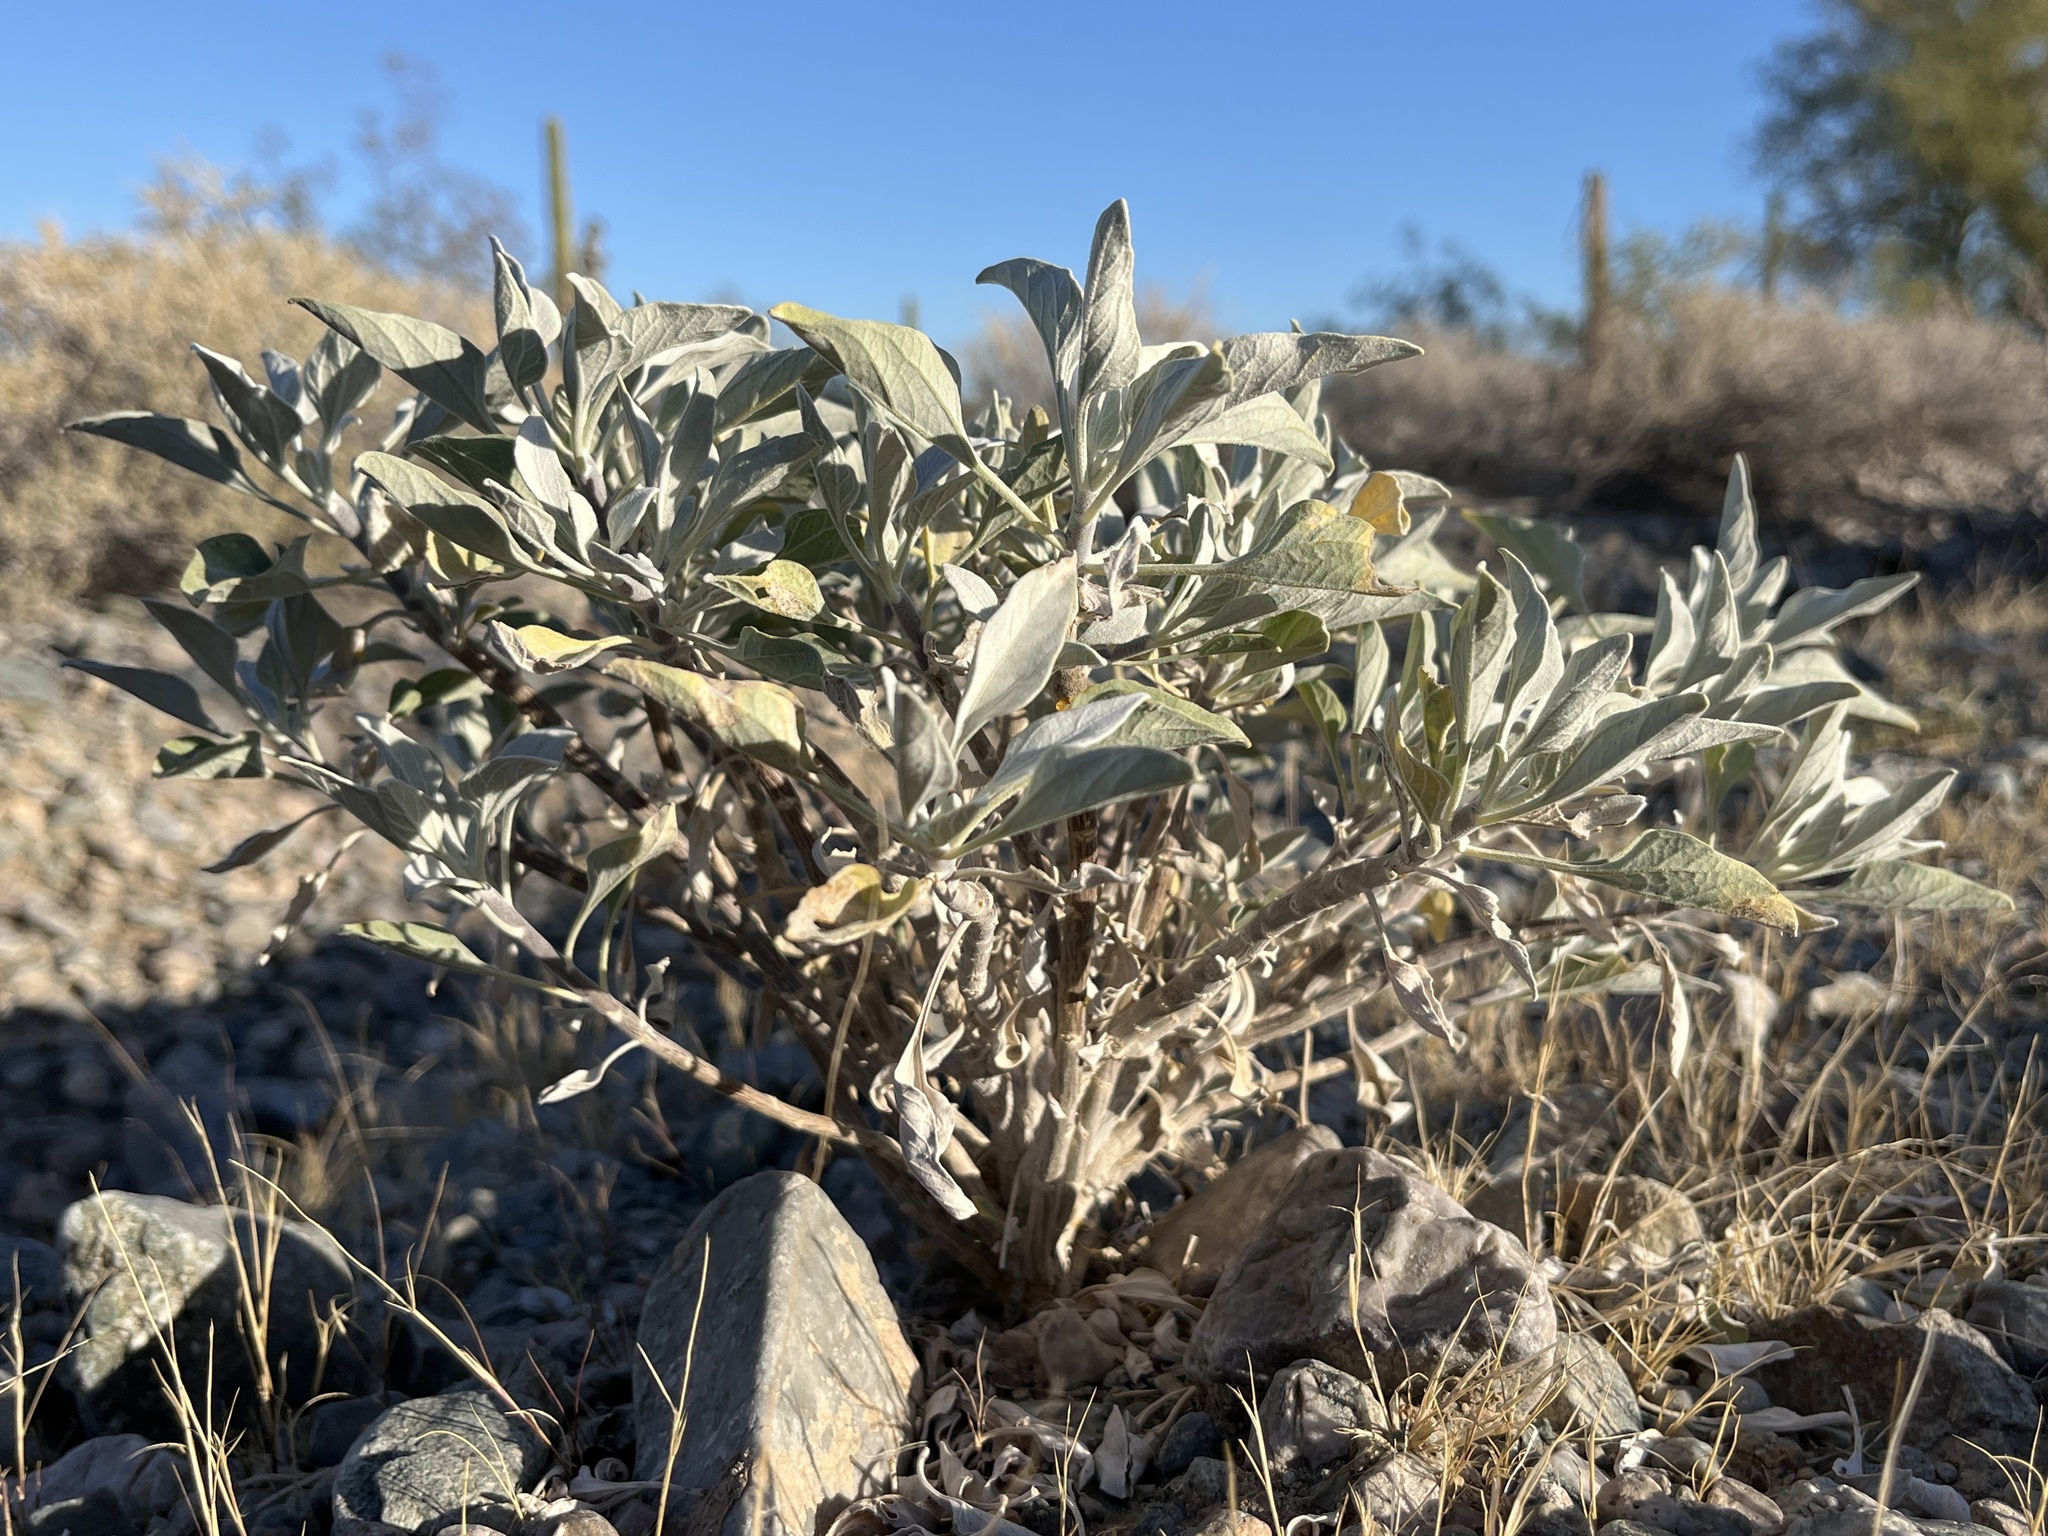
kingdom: Plantae
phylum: Tracheophyta
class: Magnoliopsida
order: Asterales
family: Asteraceae
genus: Encelia
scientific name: Encelia farinosa
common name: Brittlebush
